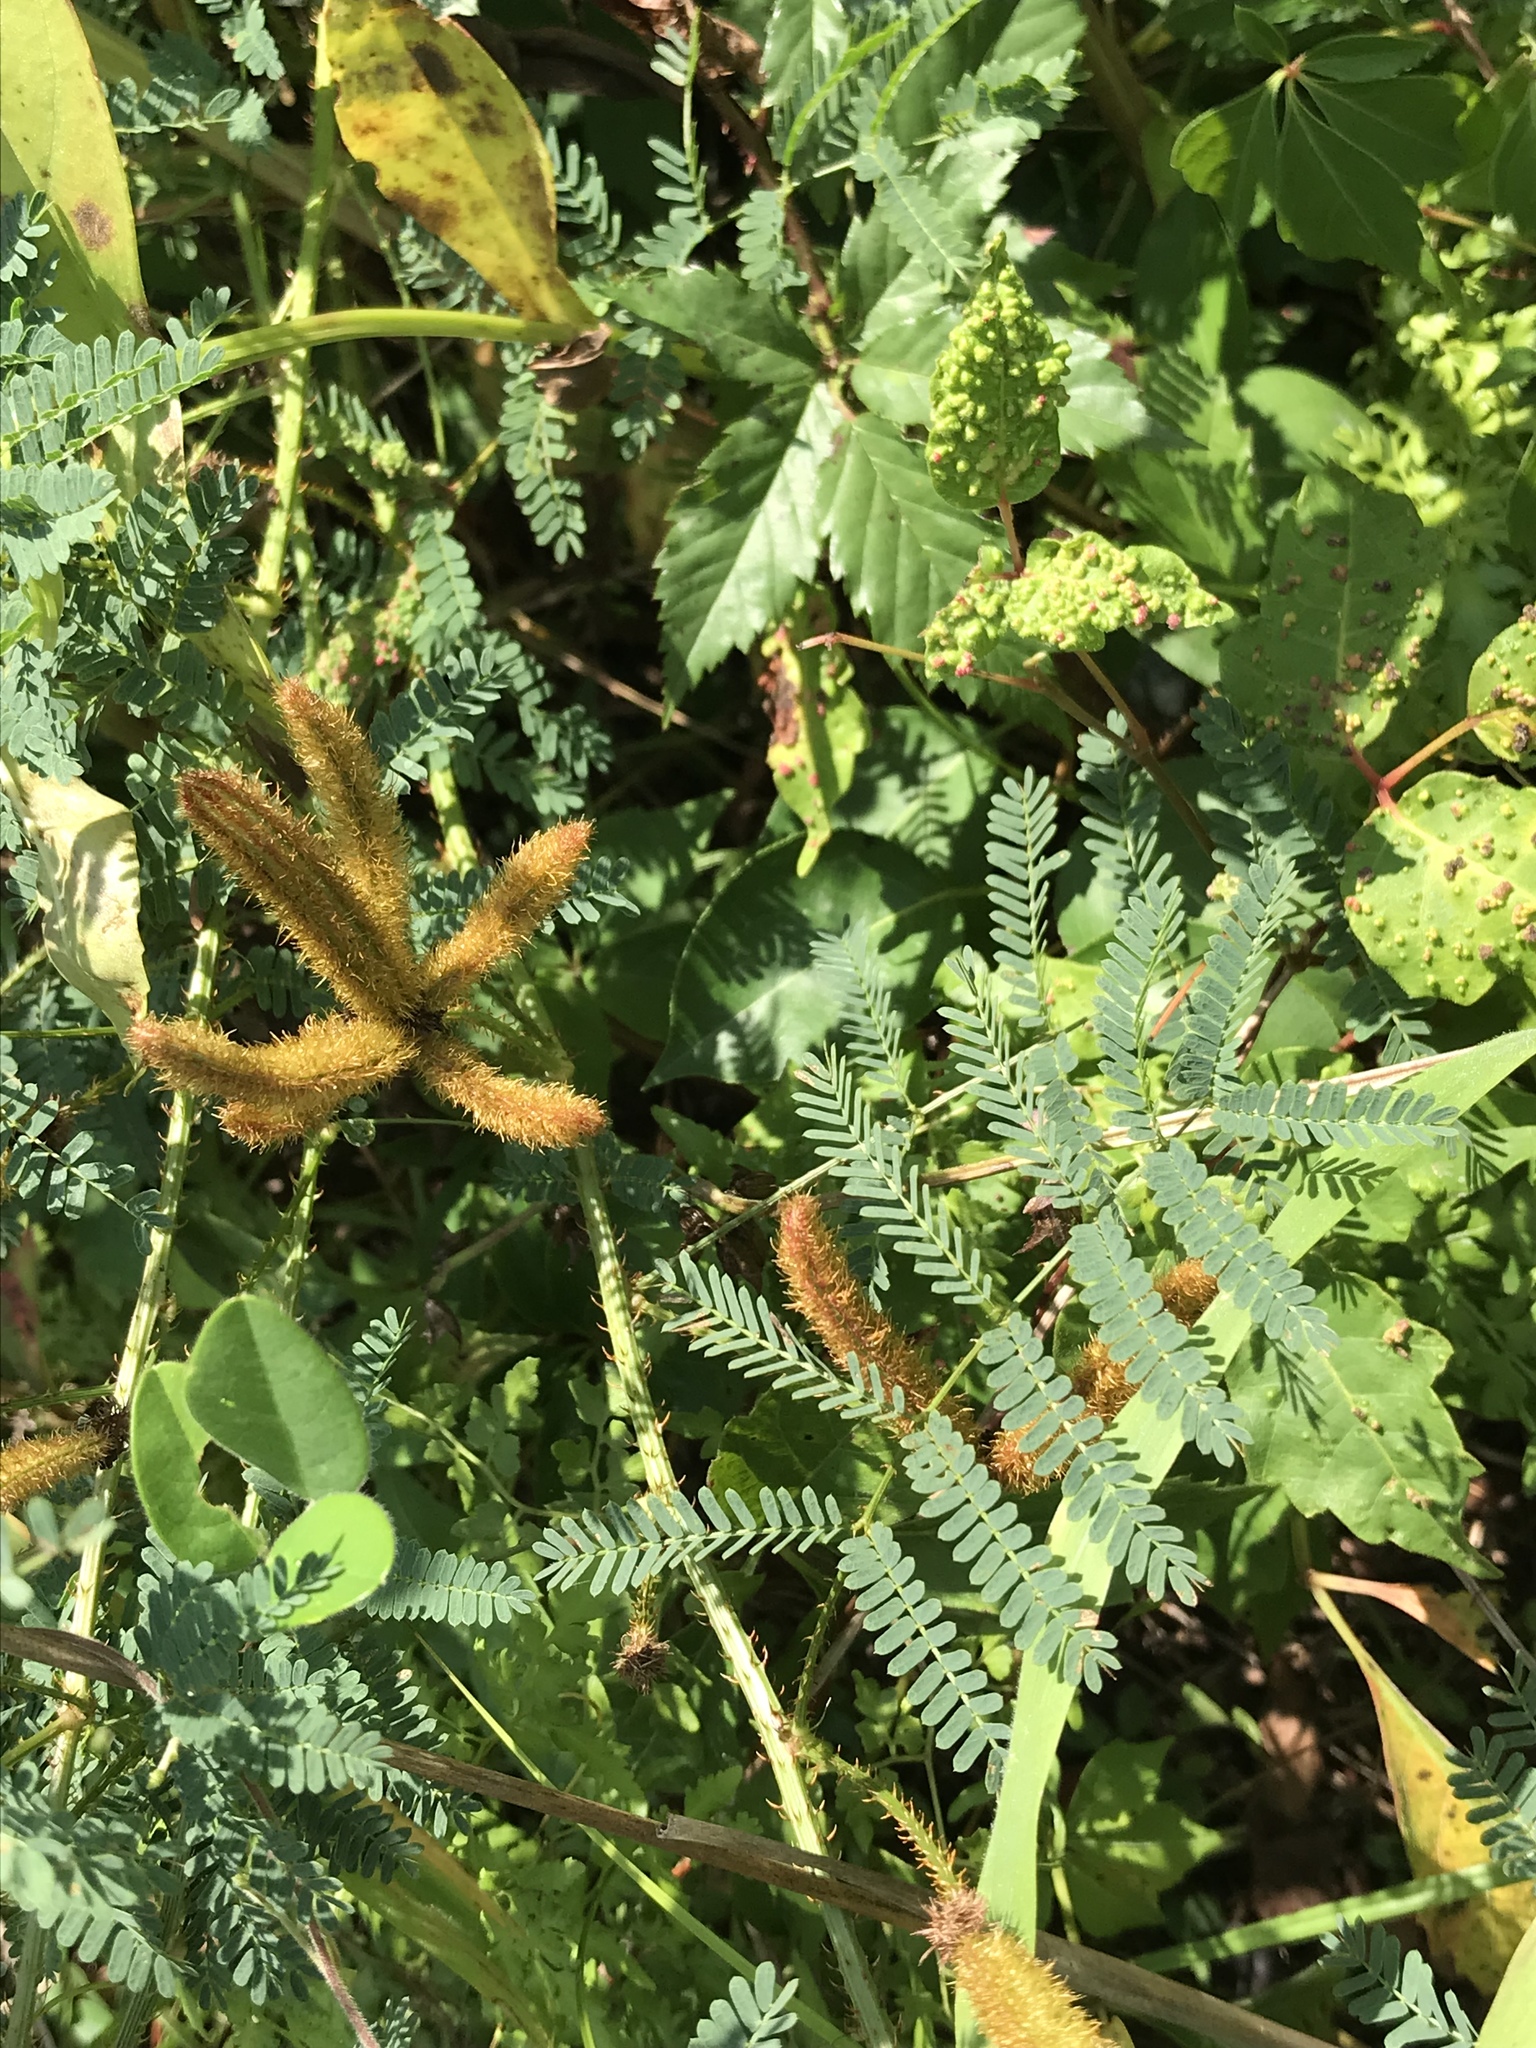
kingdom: Plantae
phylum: Tracheophyta
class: Magnoliopsida
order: Fabales
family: Fabaceae
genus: Mimosa
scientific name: Mimosa hystricina
